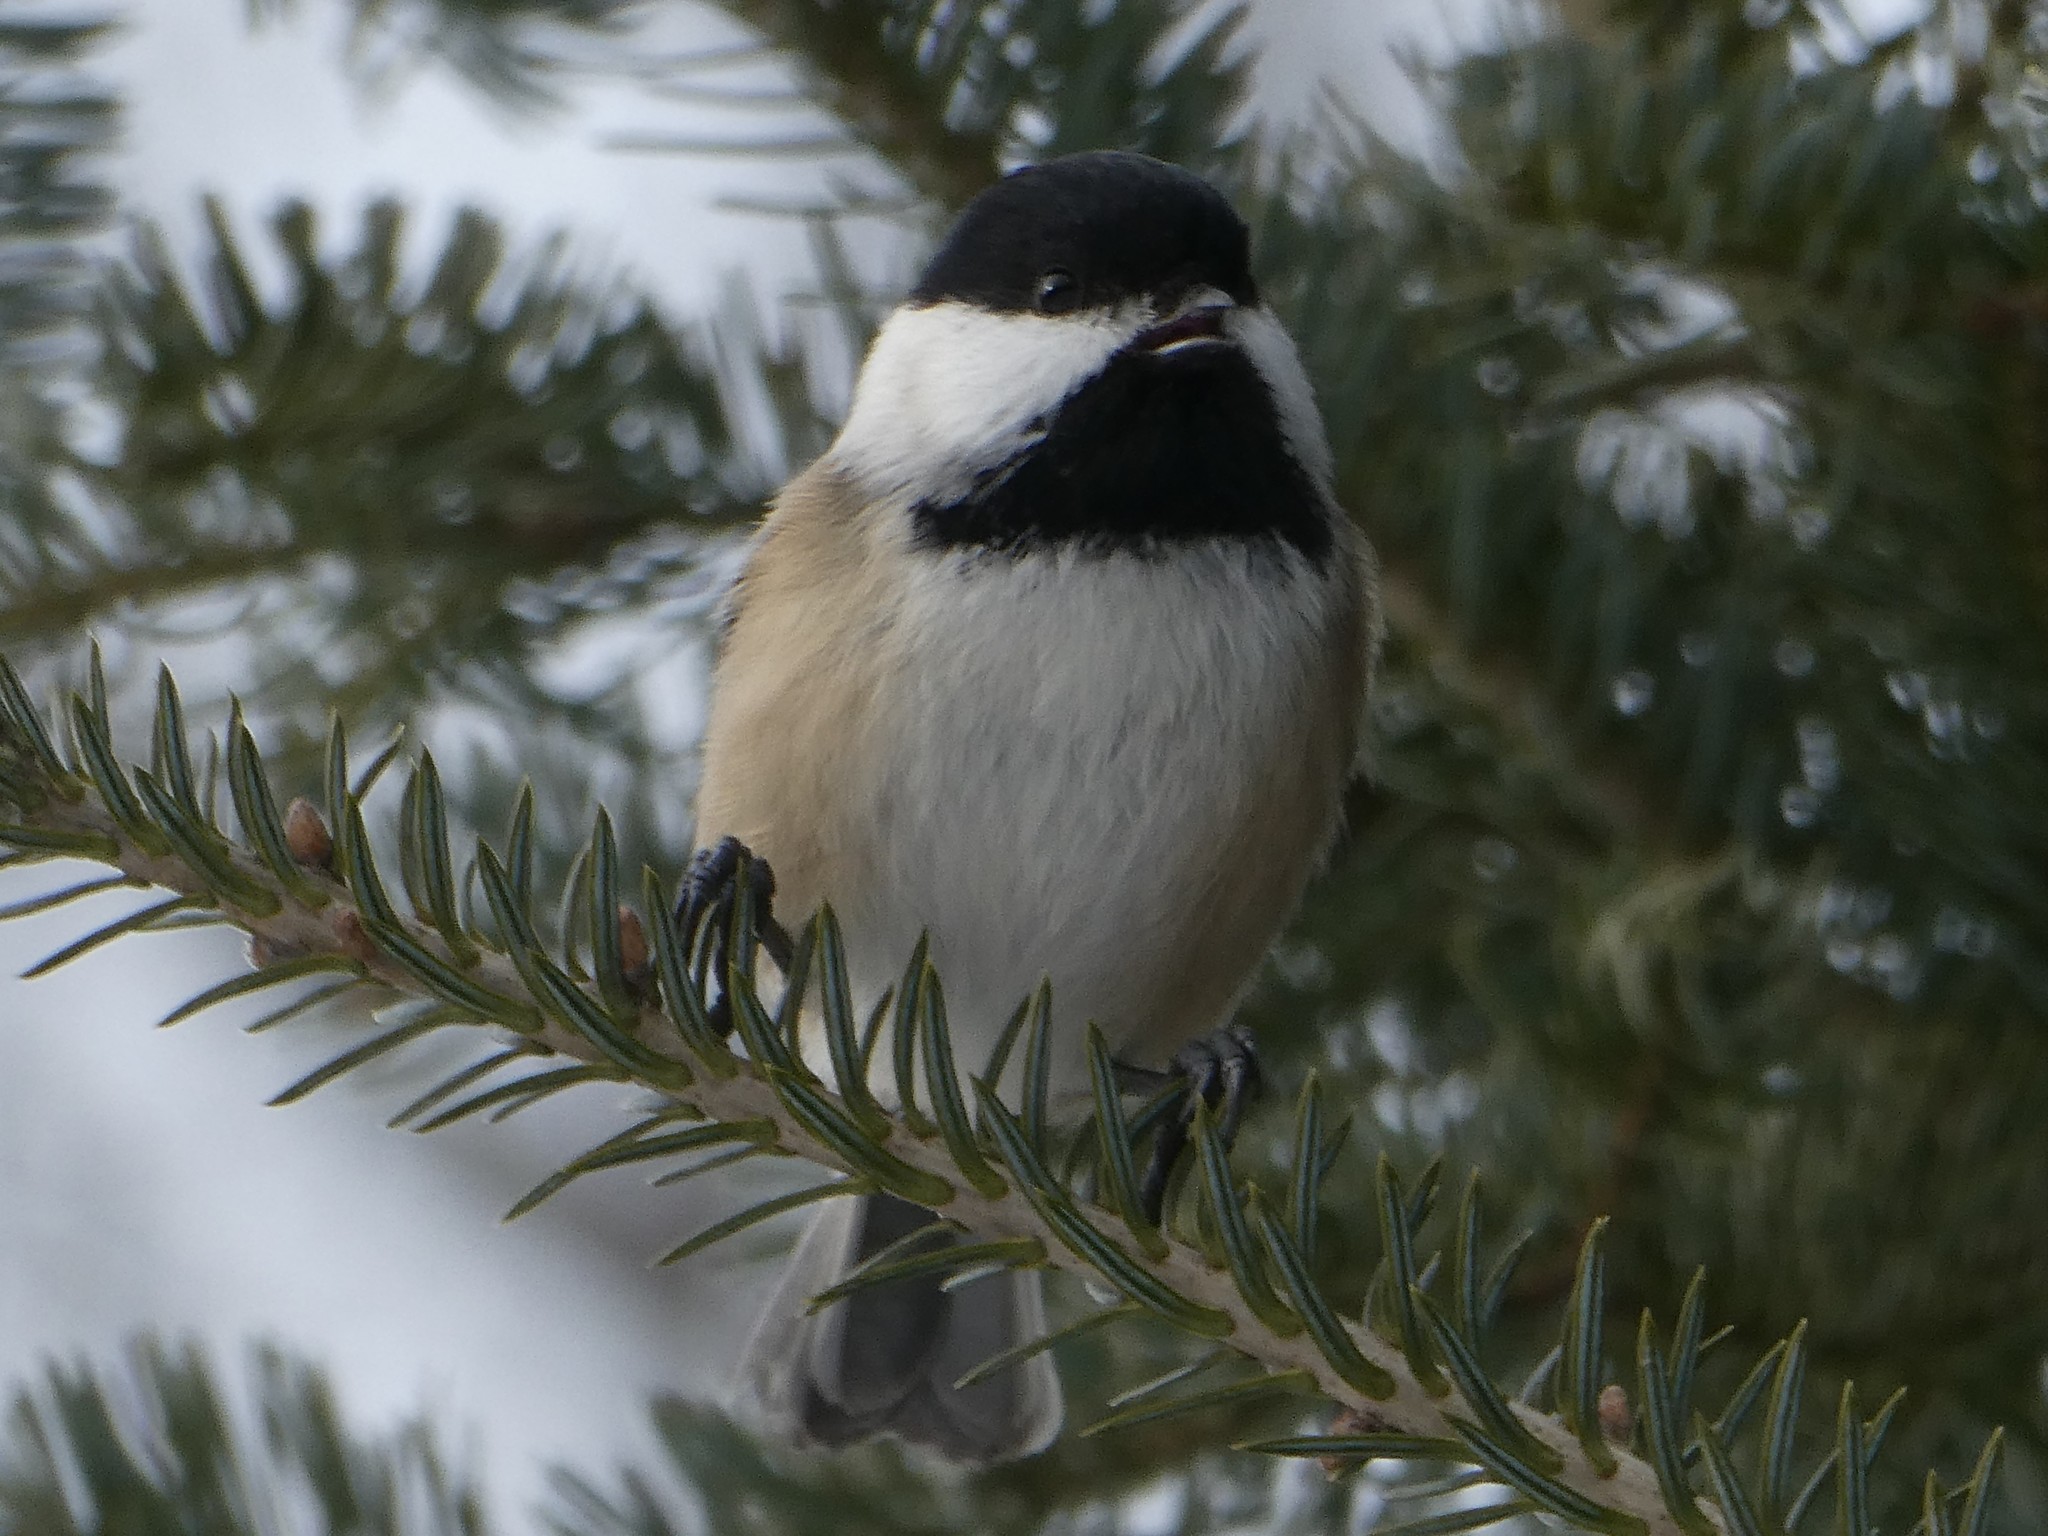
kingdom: Animalia
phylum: Chordata
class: Aves
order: Passeriformes
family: Paridae
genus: Poecile
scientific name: Poecile atricapillus
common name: Black-capped chickadee
